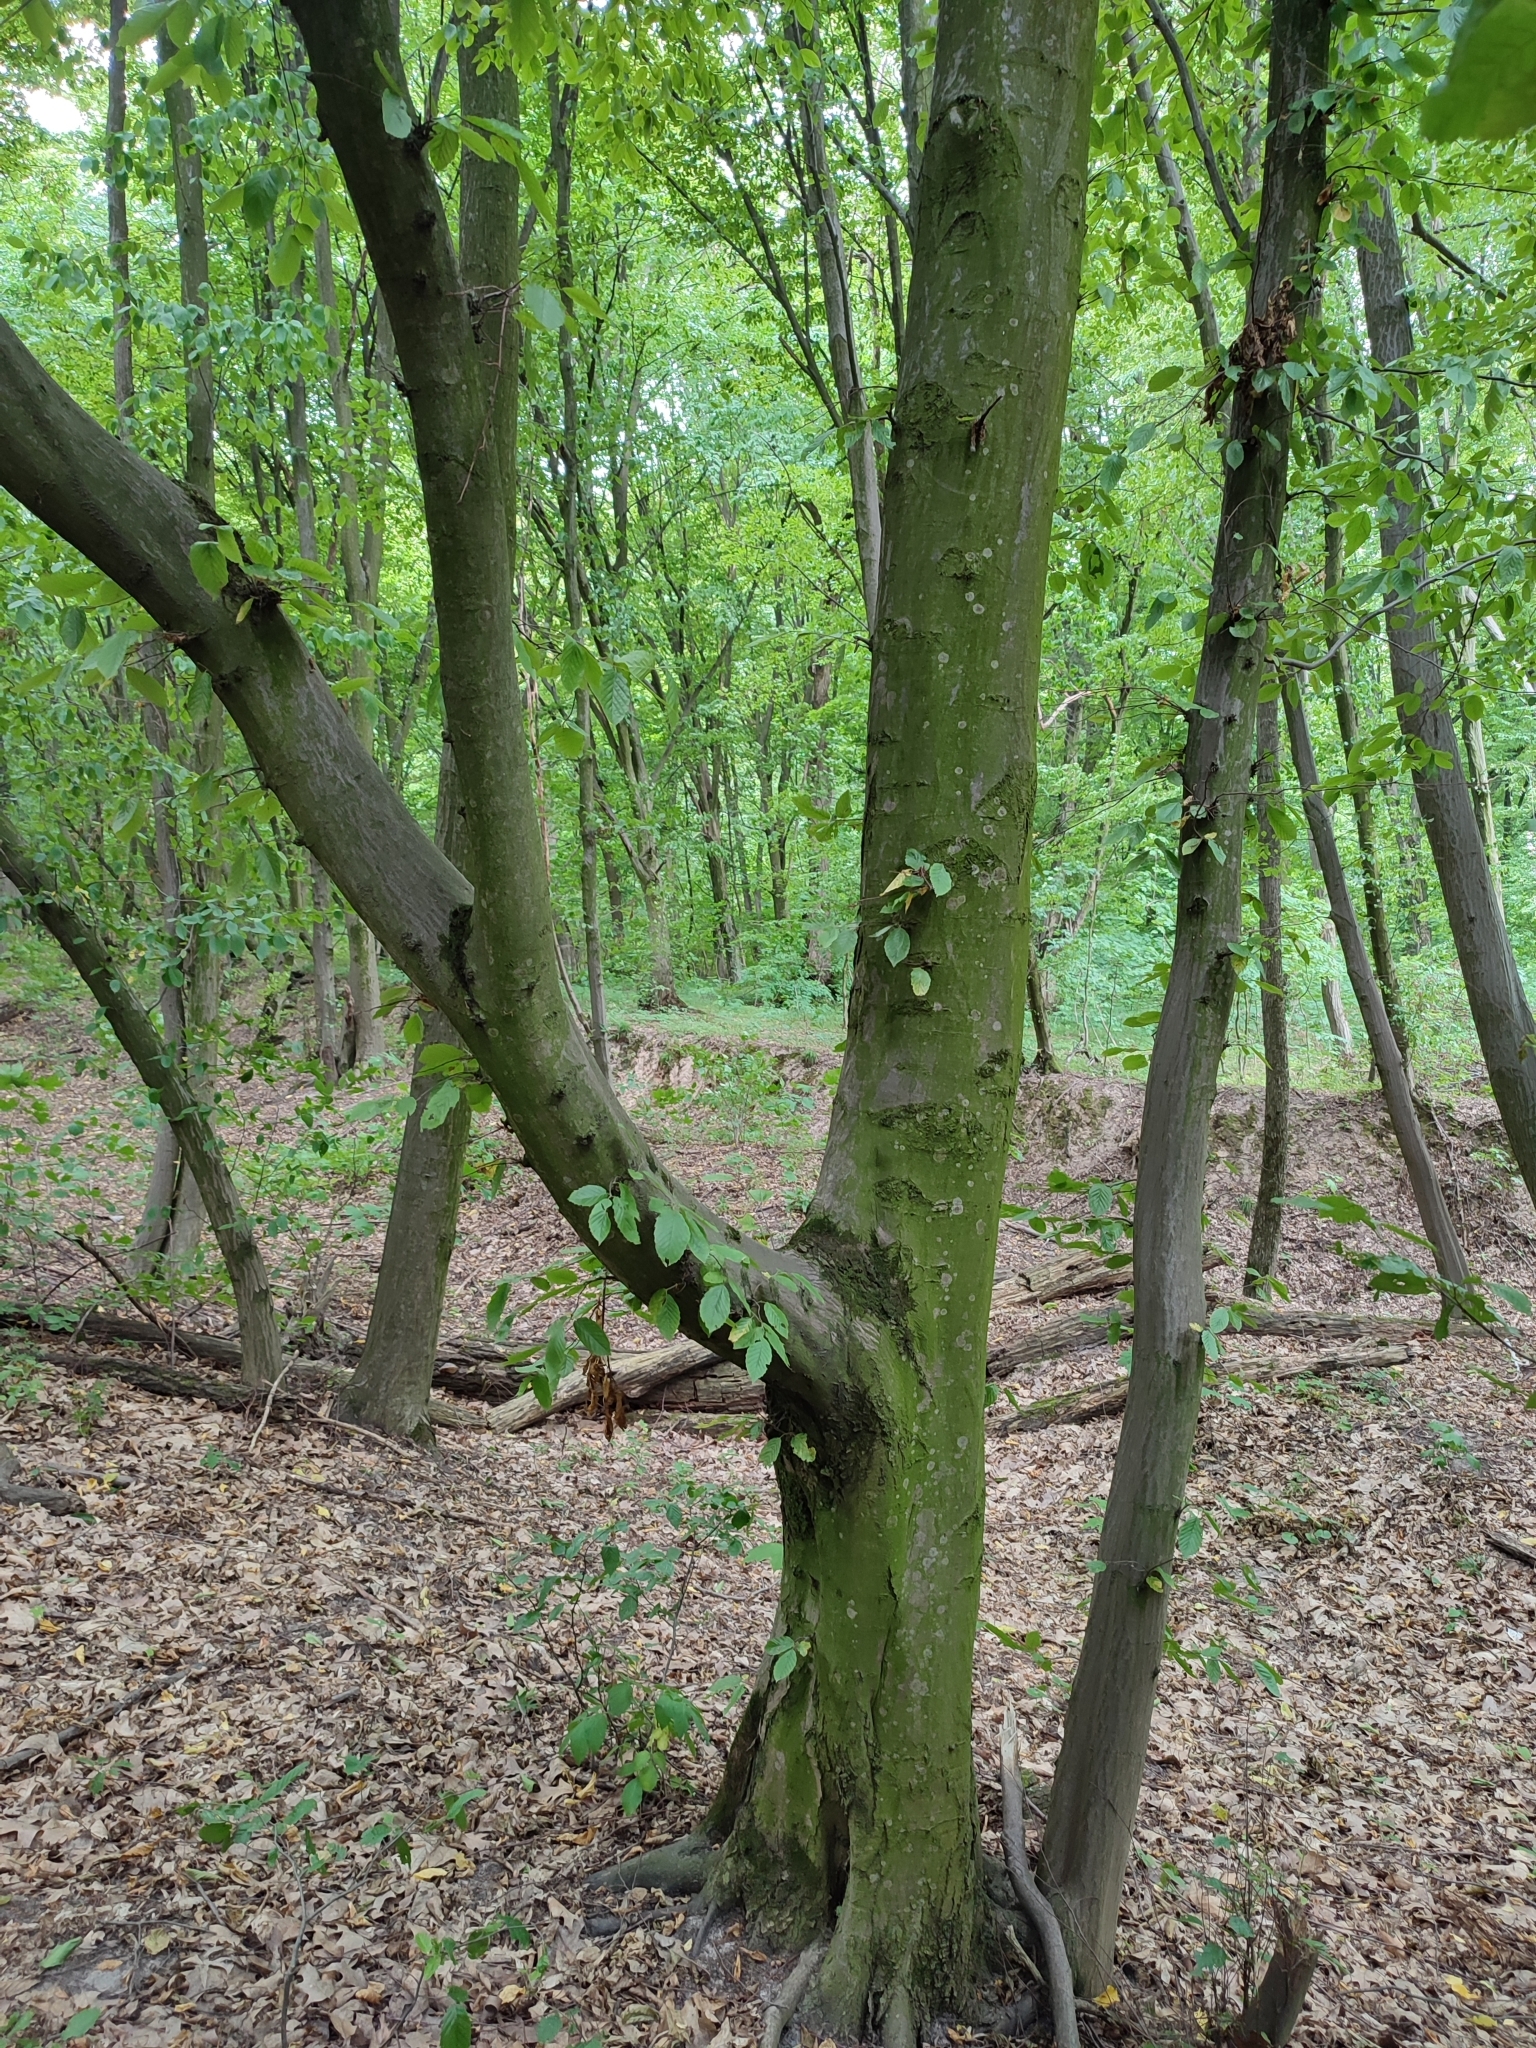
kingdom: Plantae
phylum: Tracheophyta
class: Magnoliopsida
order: Fagales
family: Betulaceae
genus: Carpinus
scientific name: Carpinus betulus
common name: Hornbeam
